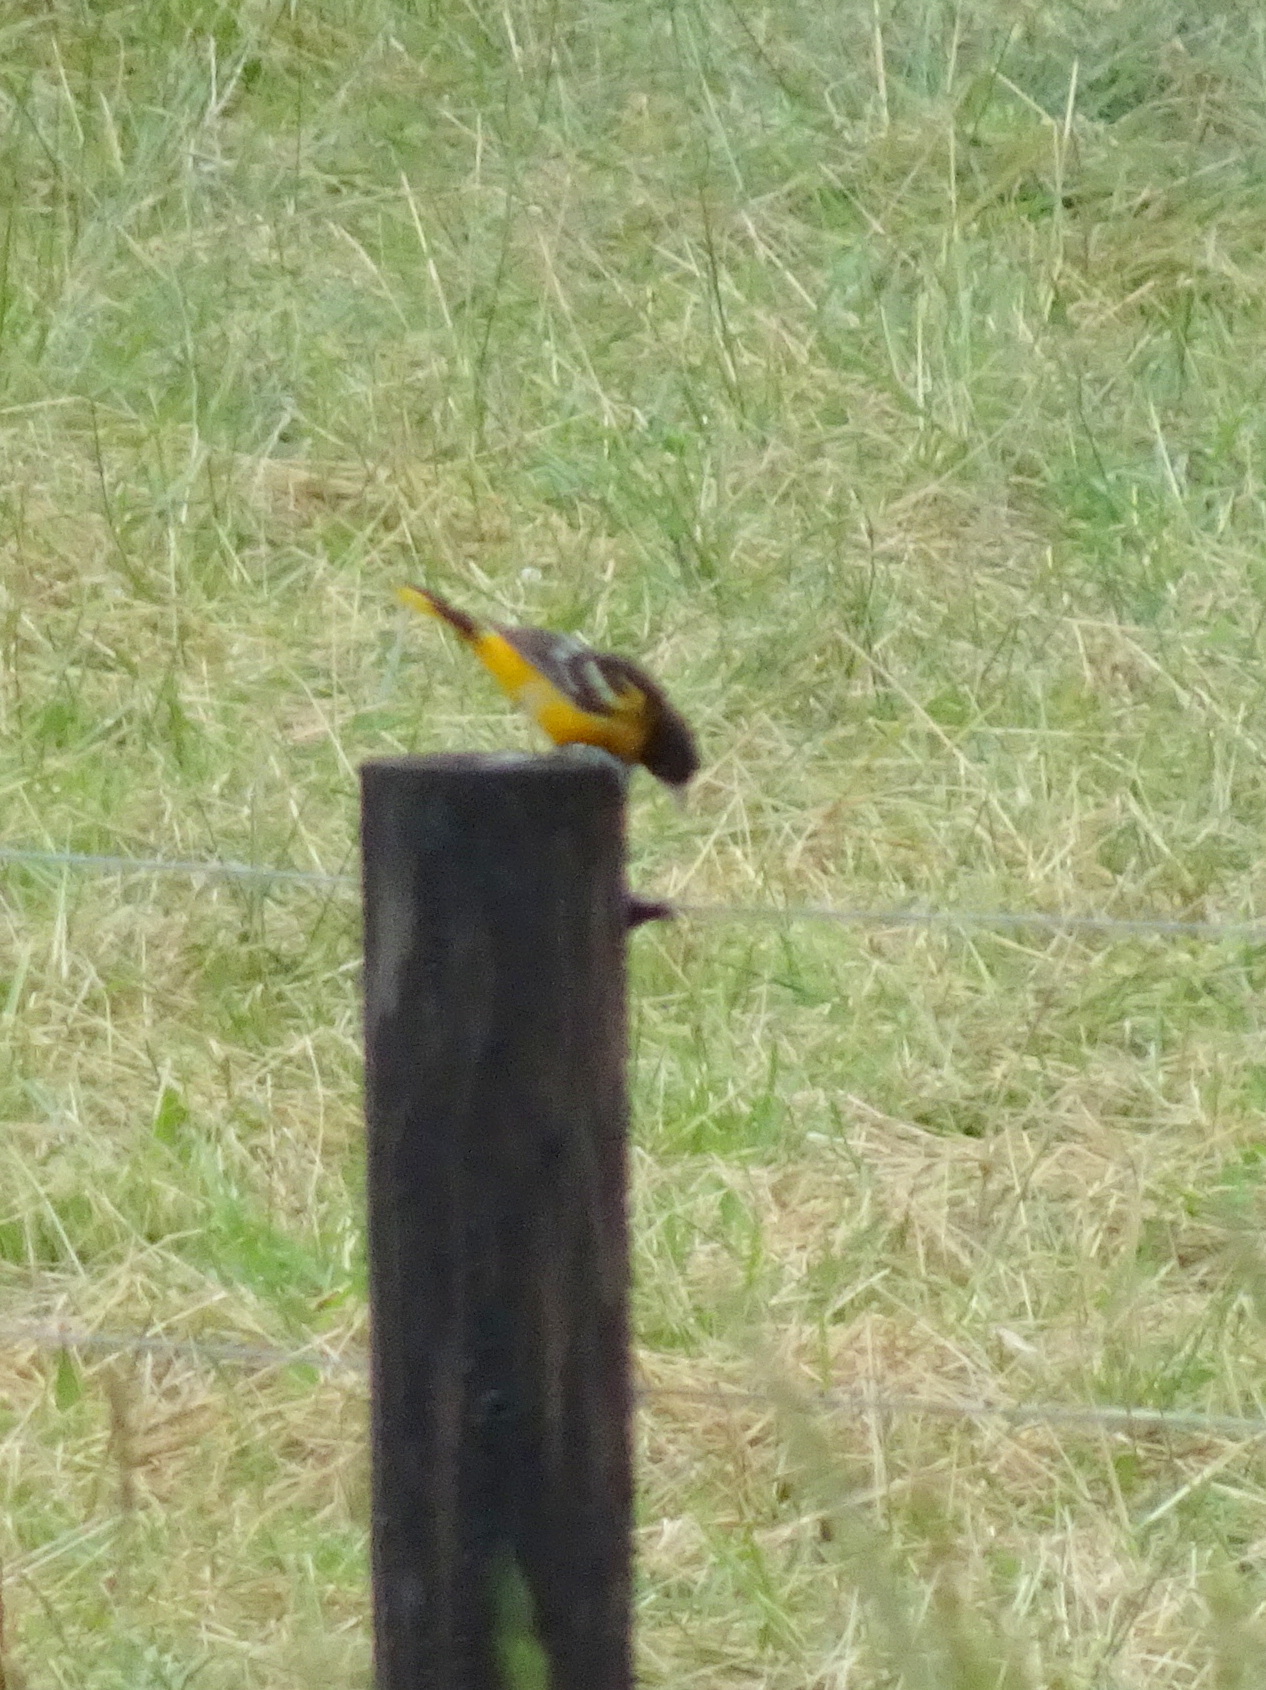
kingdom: Animalia
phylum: Chordata
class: Aves
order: Passeriformes
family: Icteridae
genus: Icterus
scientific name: Icterus galbula
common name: Baltimore oriole
